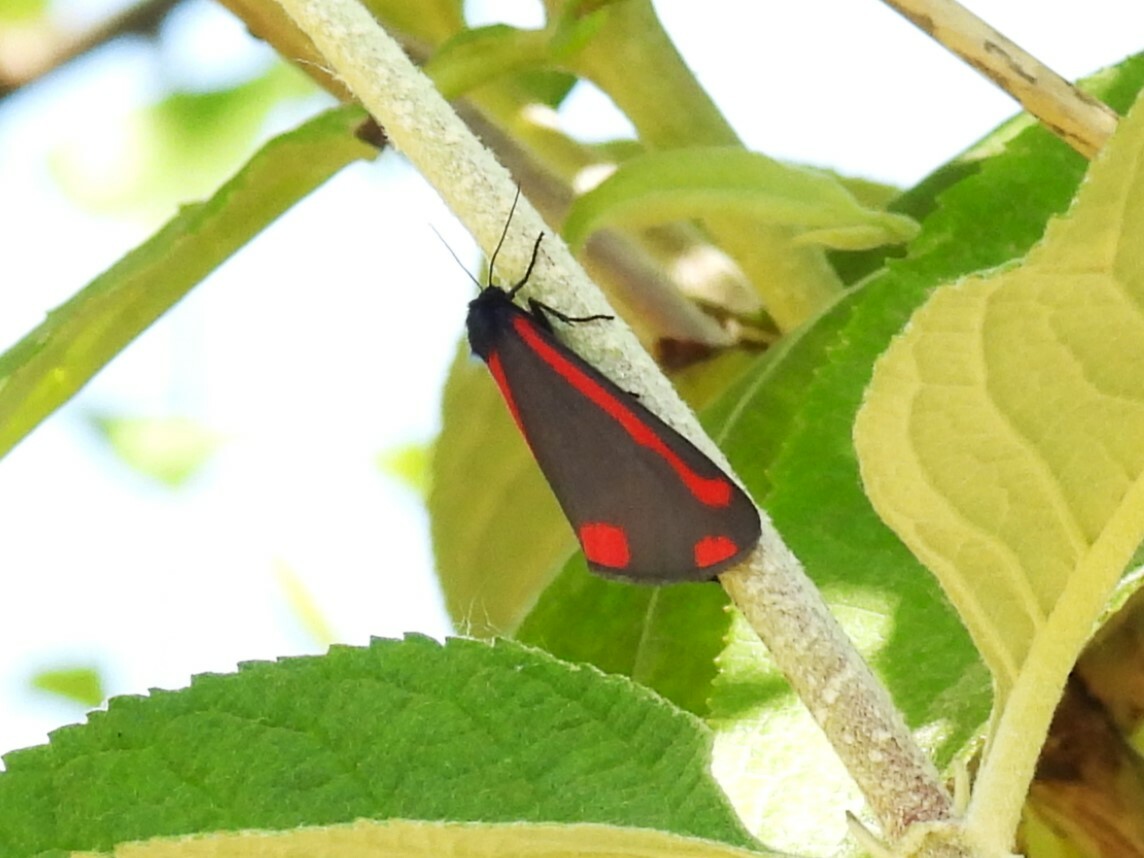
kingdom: Animalia
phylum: Arthropoda
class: Insecta
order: Lepidoptera
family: Erebidae
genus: Tyria
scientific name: Tyria jacobaeae
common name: Cinnabar
